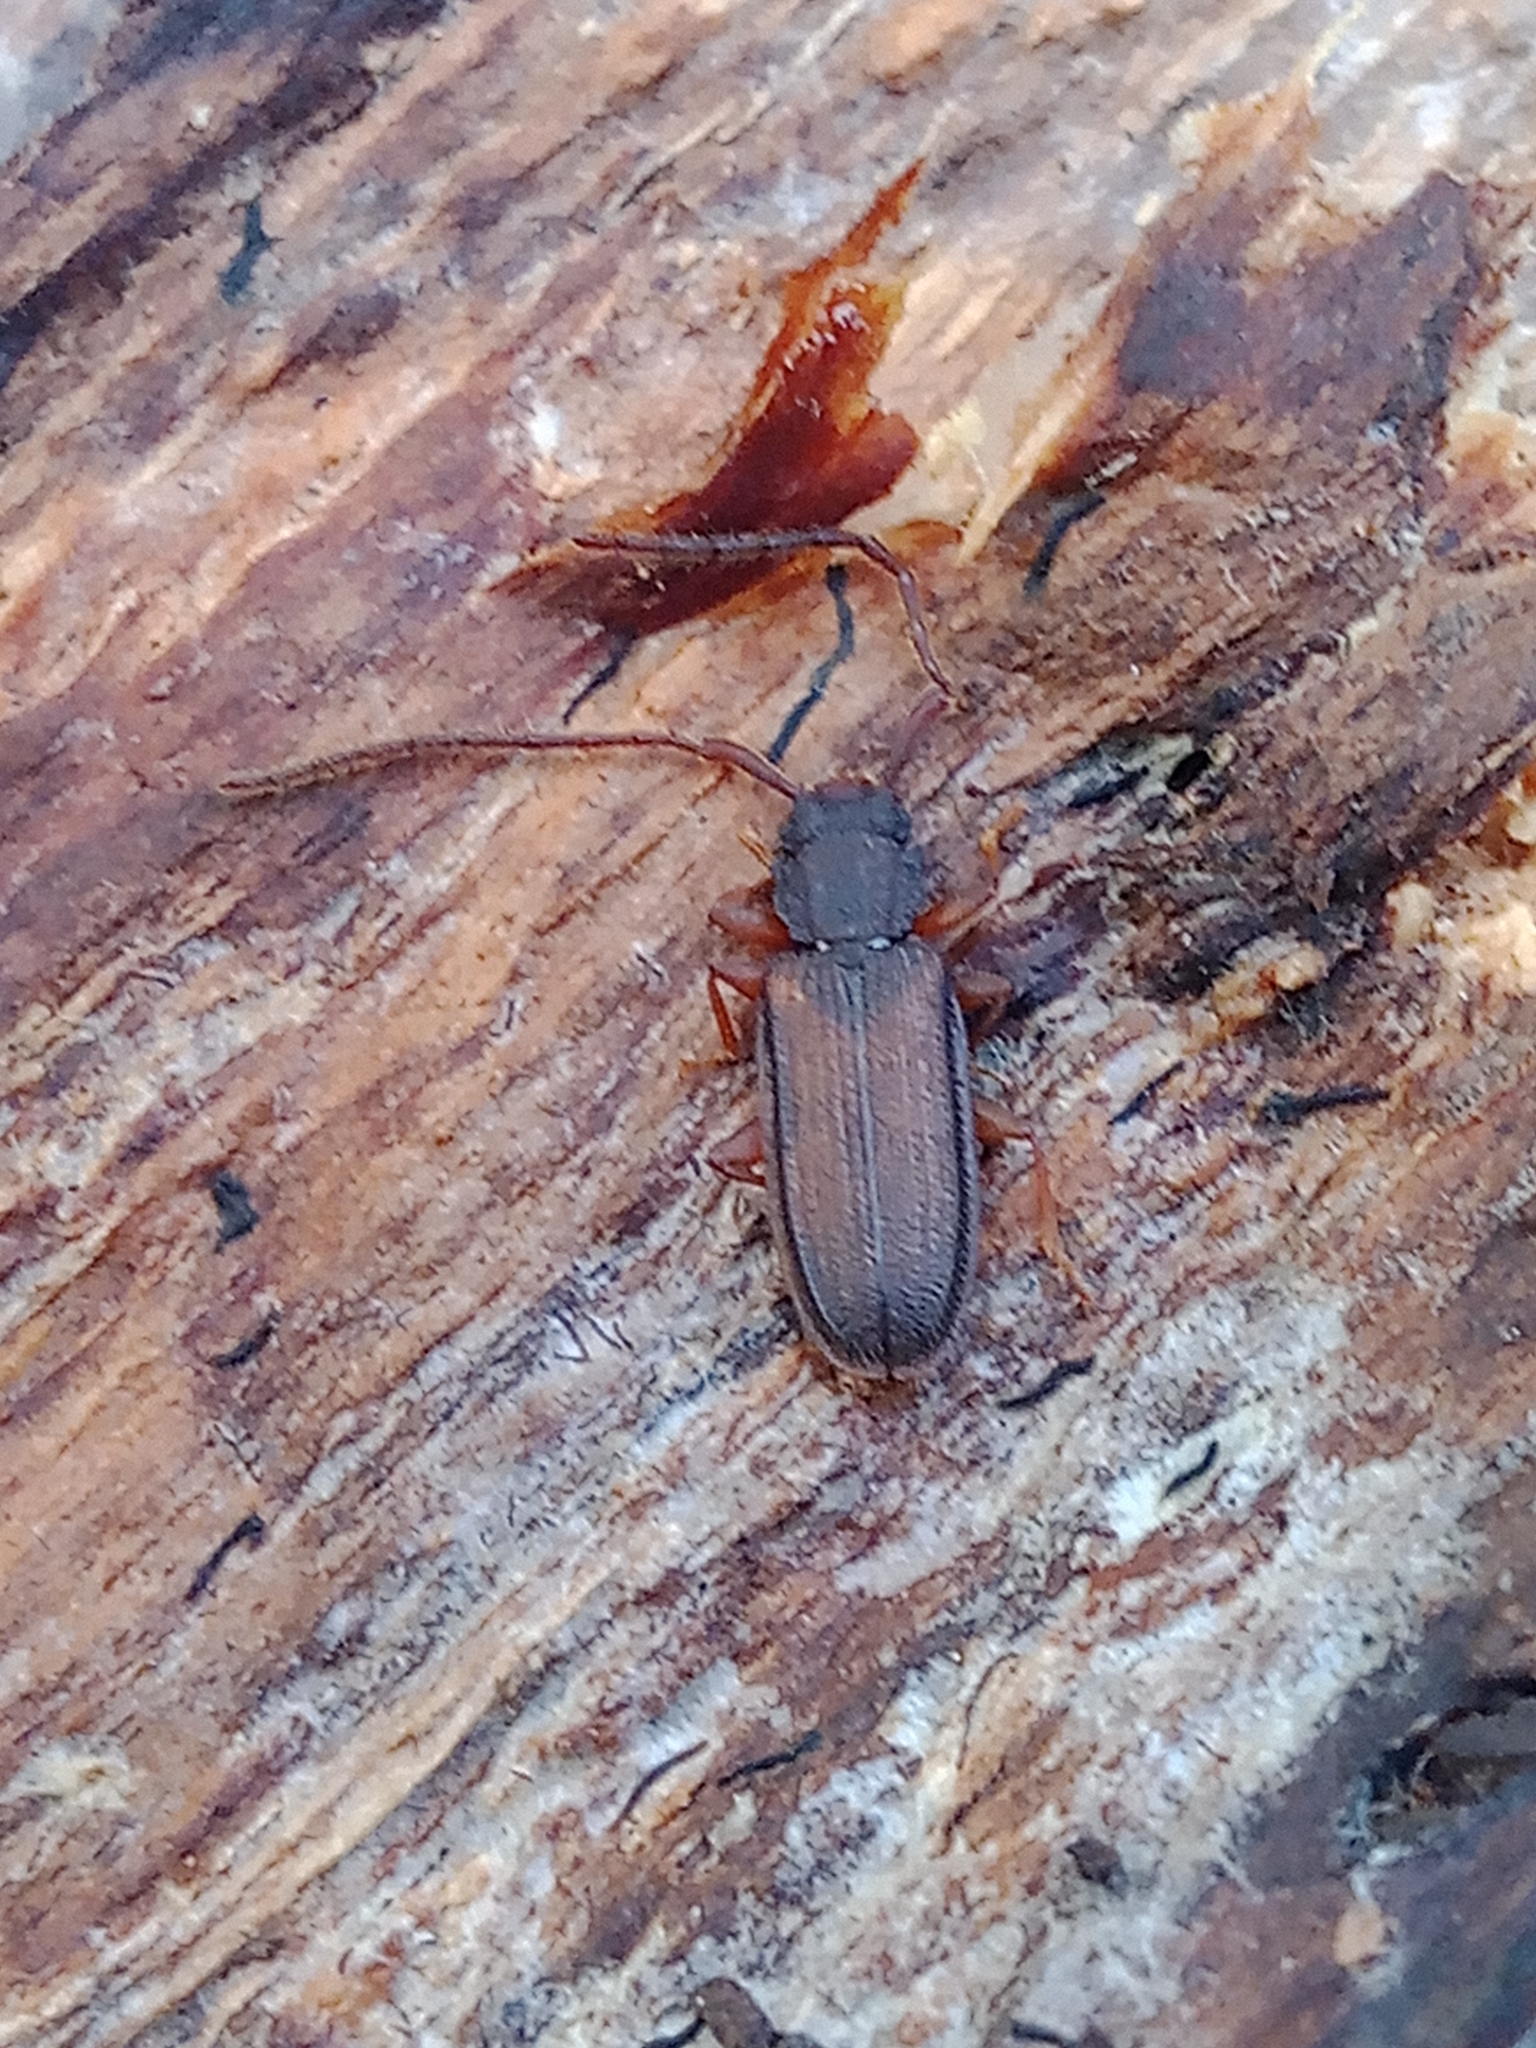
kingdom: Animalia
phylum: Arthropoda
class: Insecta
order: Coleoptera
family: Silvanidae
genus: Uleiota
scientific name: Uleiota planatus
